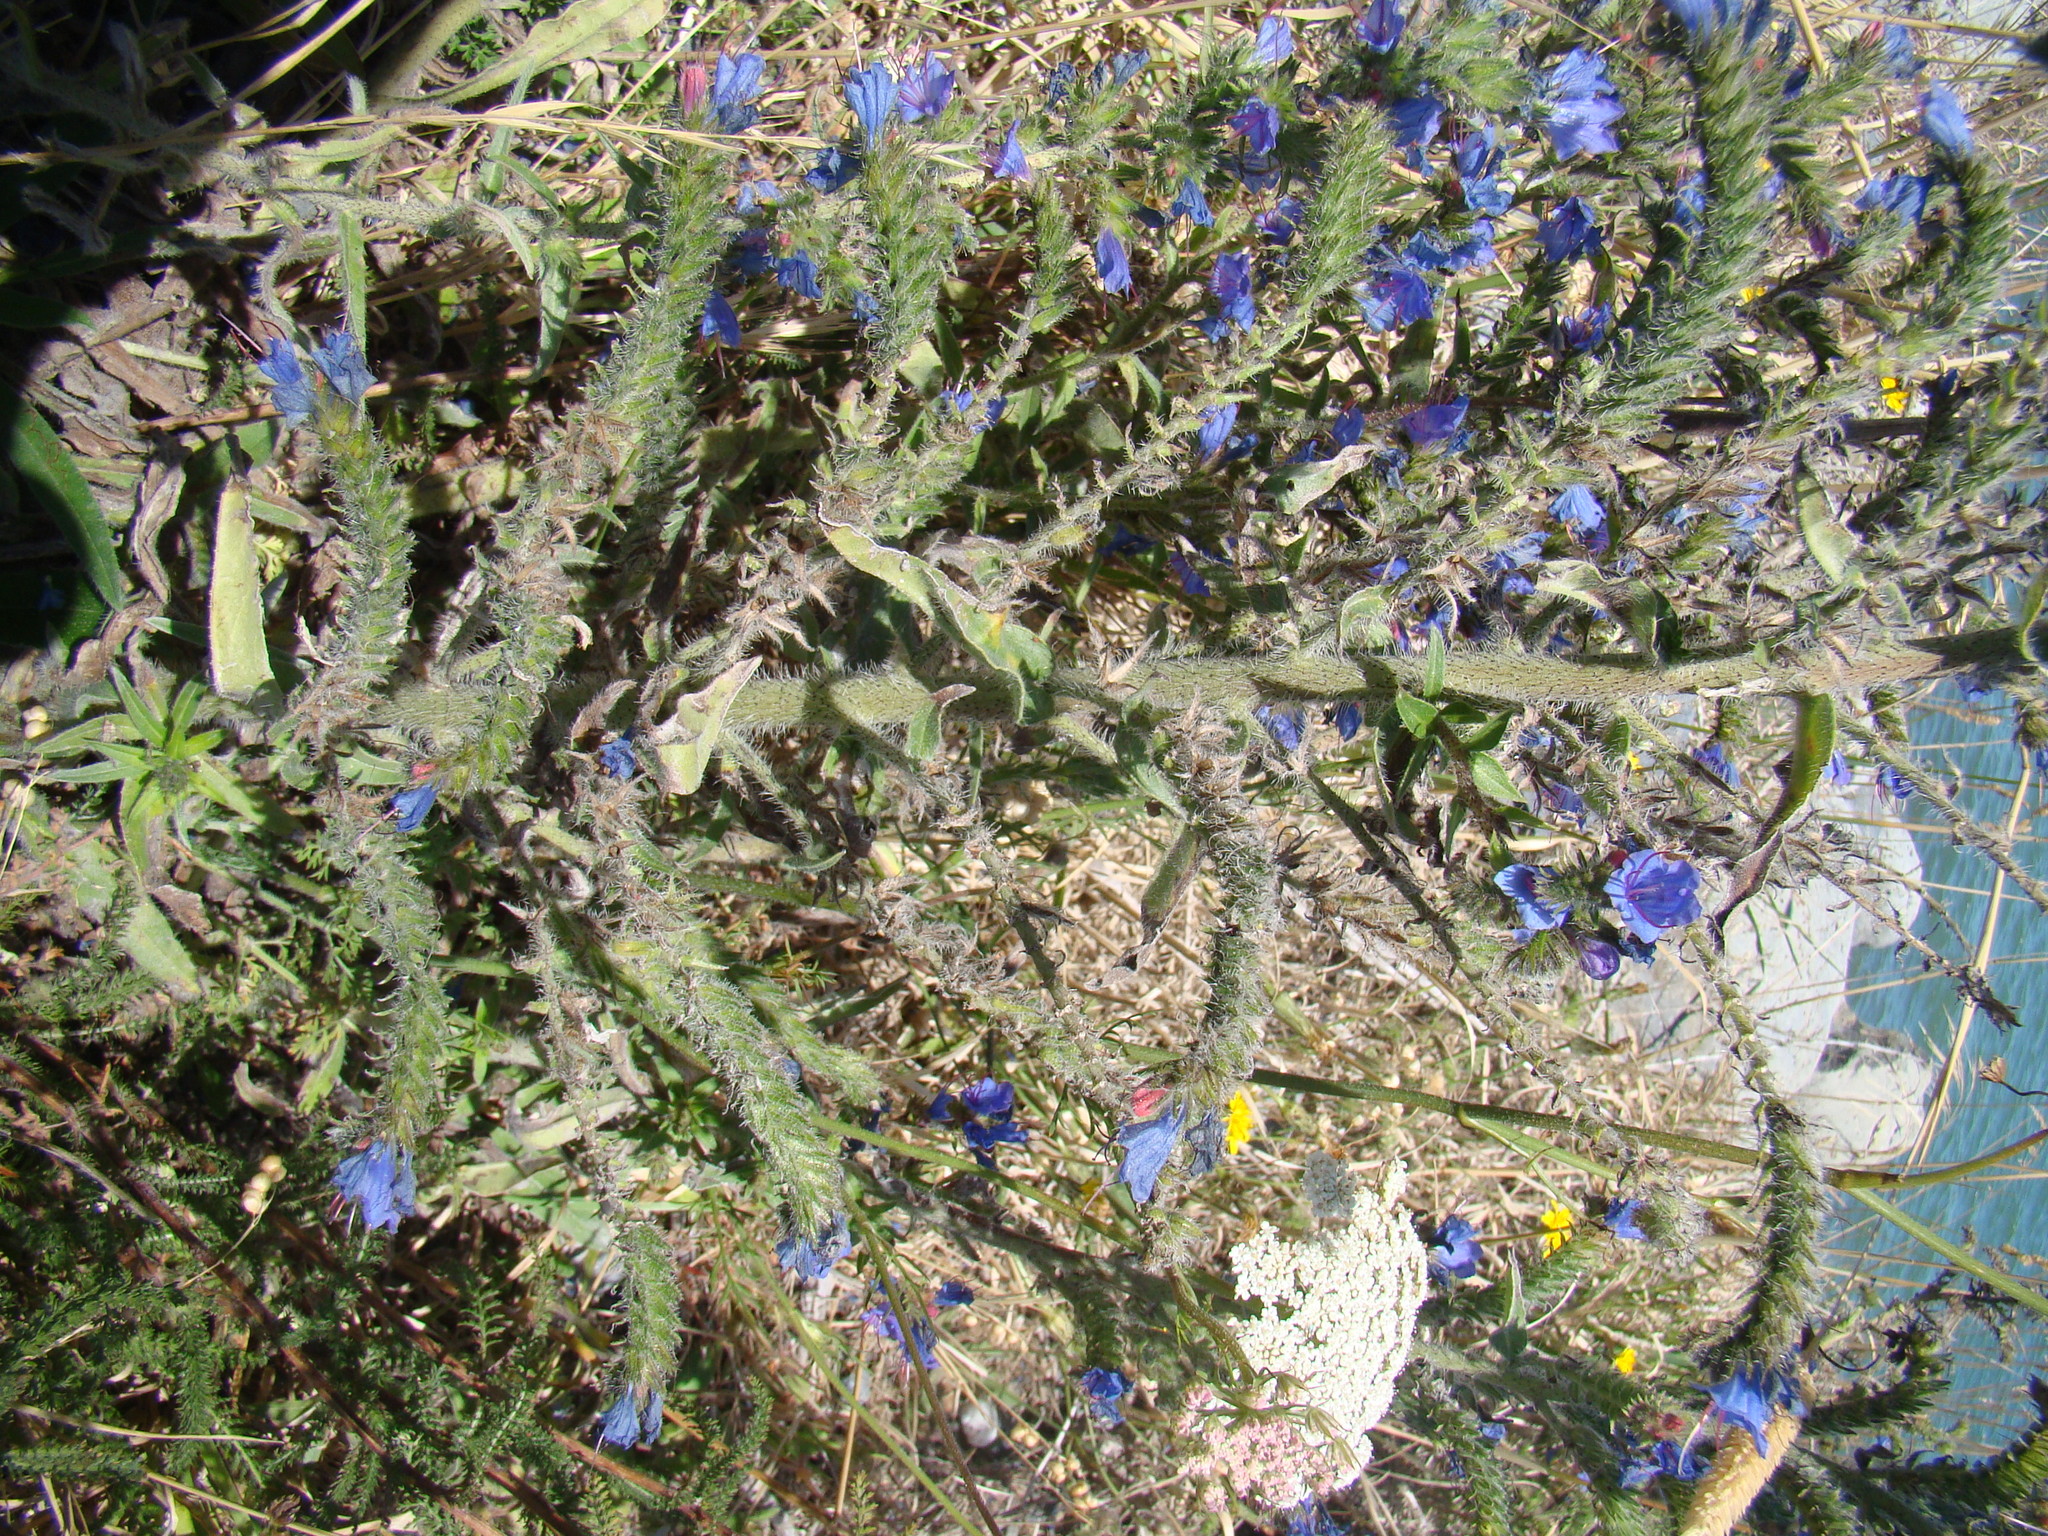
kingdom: Plantae
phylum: Tracheophyta
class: Magnoliopsida
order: Boraginales
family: Boraginaceae
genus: Echium
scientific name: Echium vulgare
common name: Common viper's bugloss
